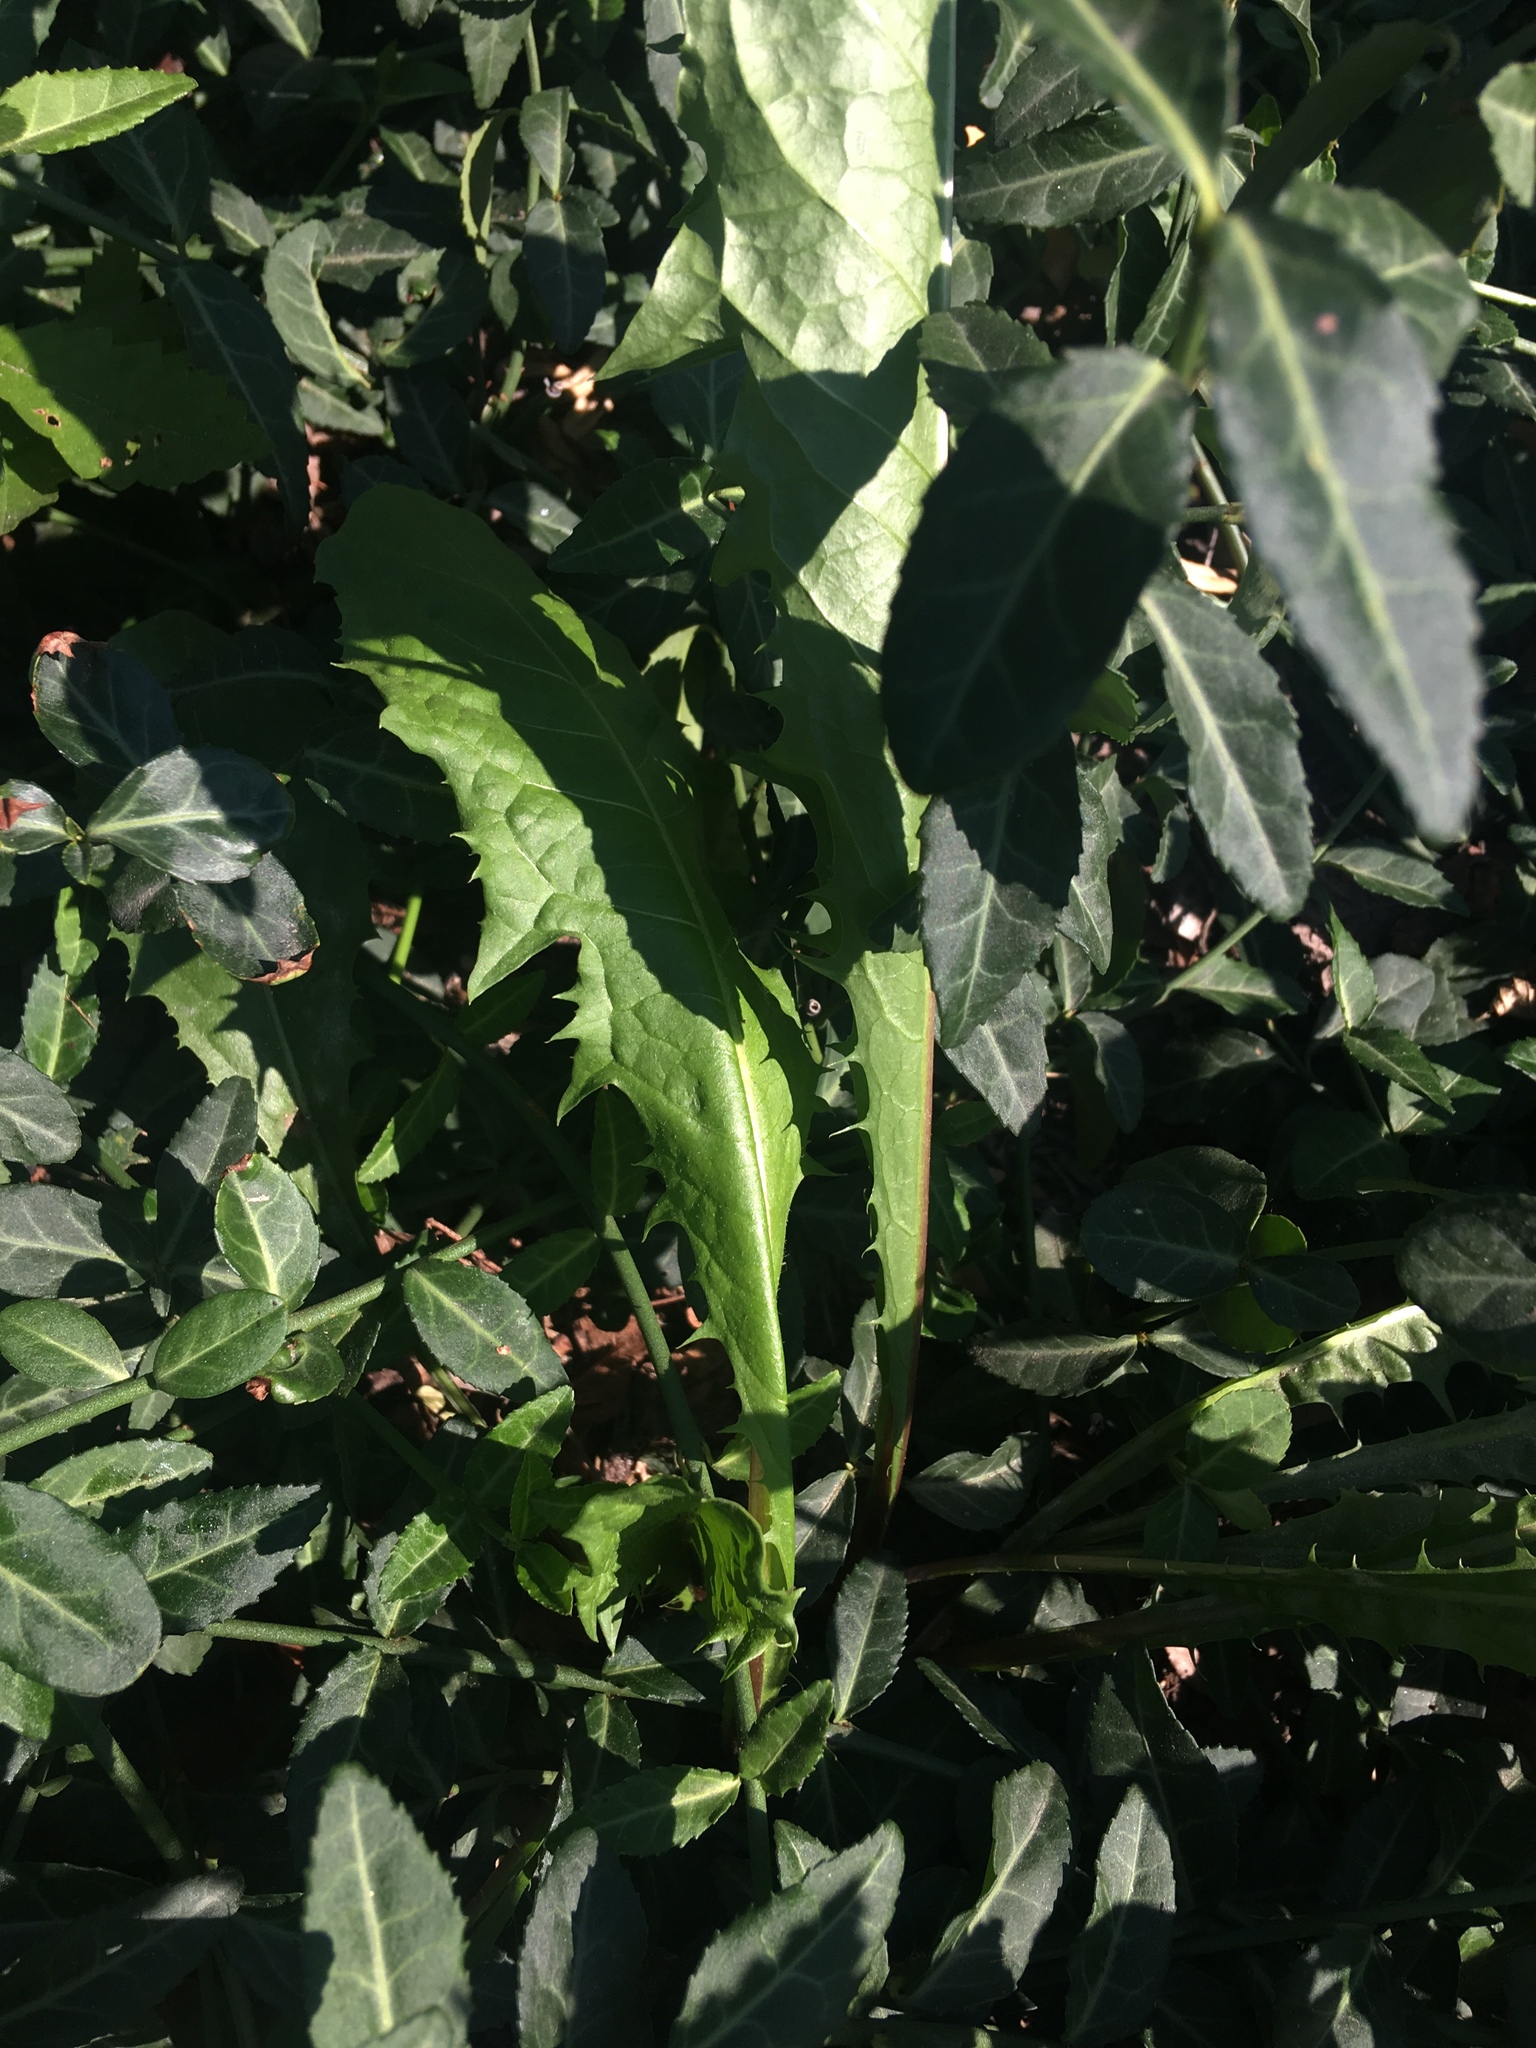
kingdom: Plantae
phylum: Tracheophyta
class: Magnoliopsida
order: Asterales
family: Asteraceae
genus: Taraxacum
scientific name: Taraxacum officinale
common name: Common dandelion
